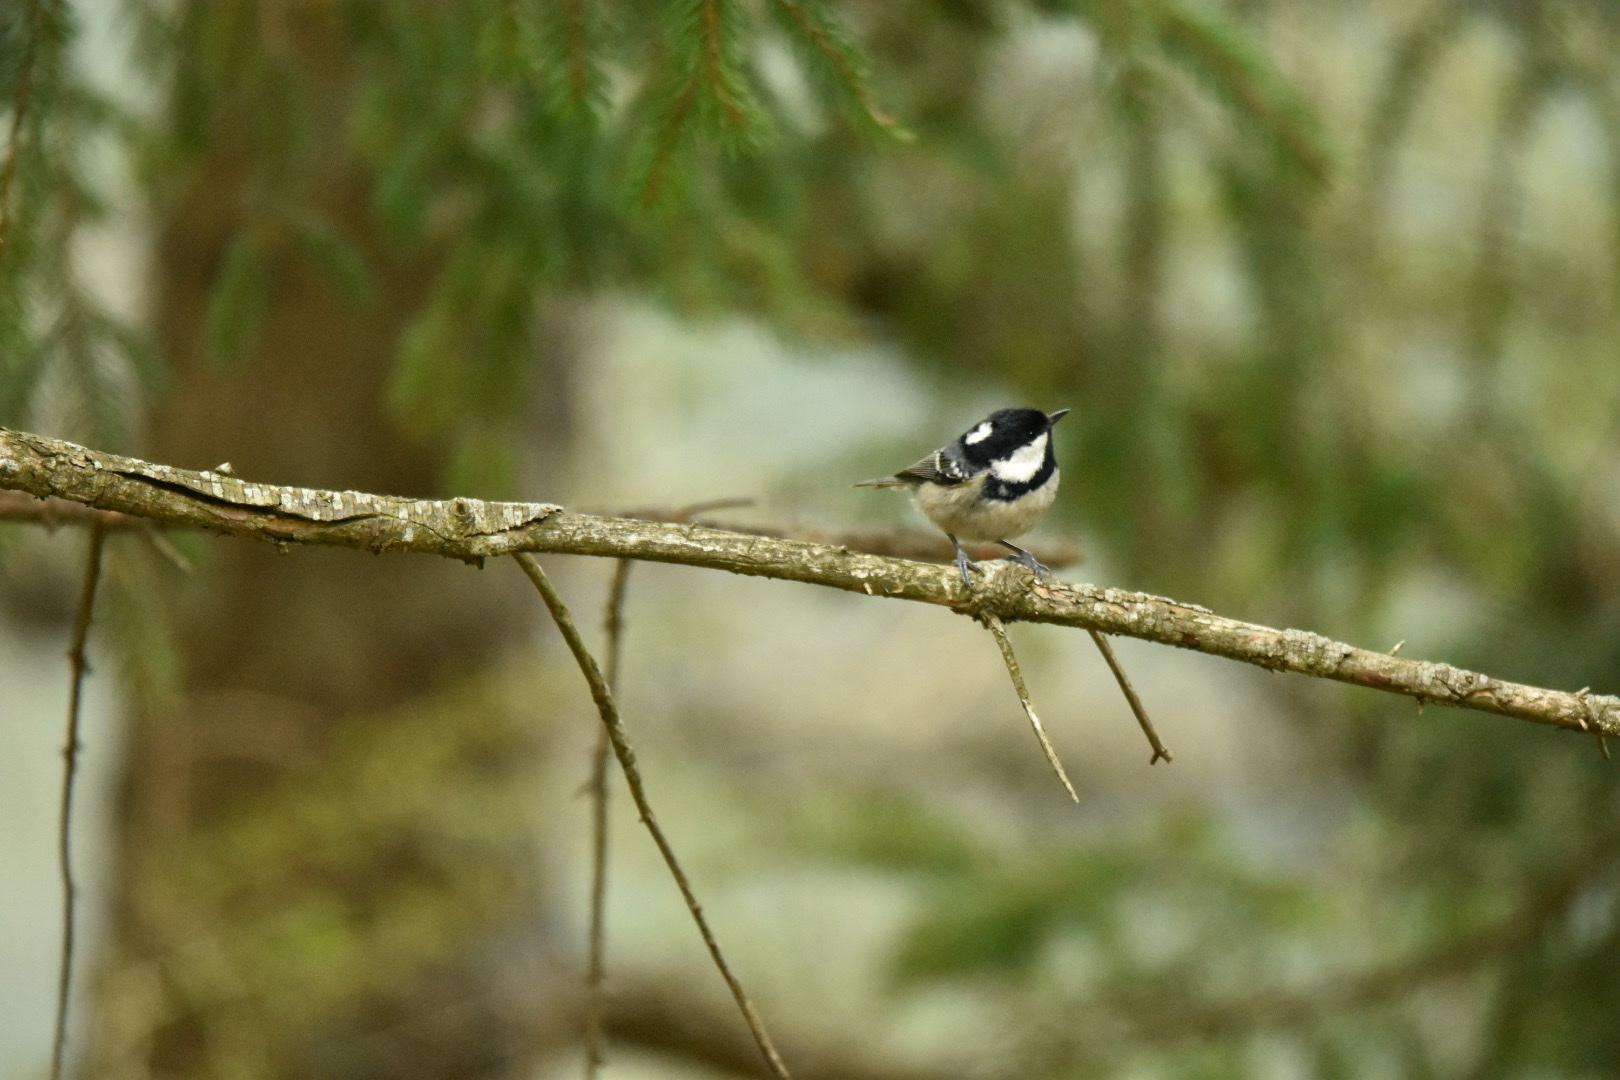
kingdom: Animalia
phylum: Chordata
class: Aves
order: Passeriformes
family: Paridae
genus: Periparus
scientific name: Periparus ater
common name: Coal tit
